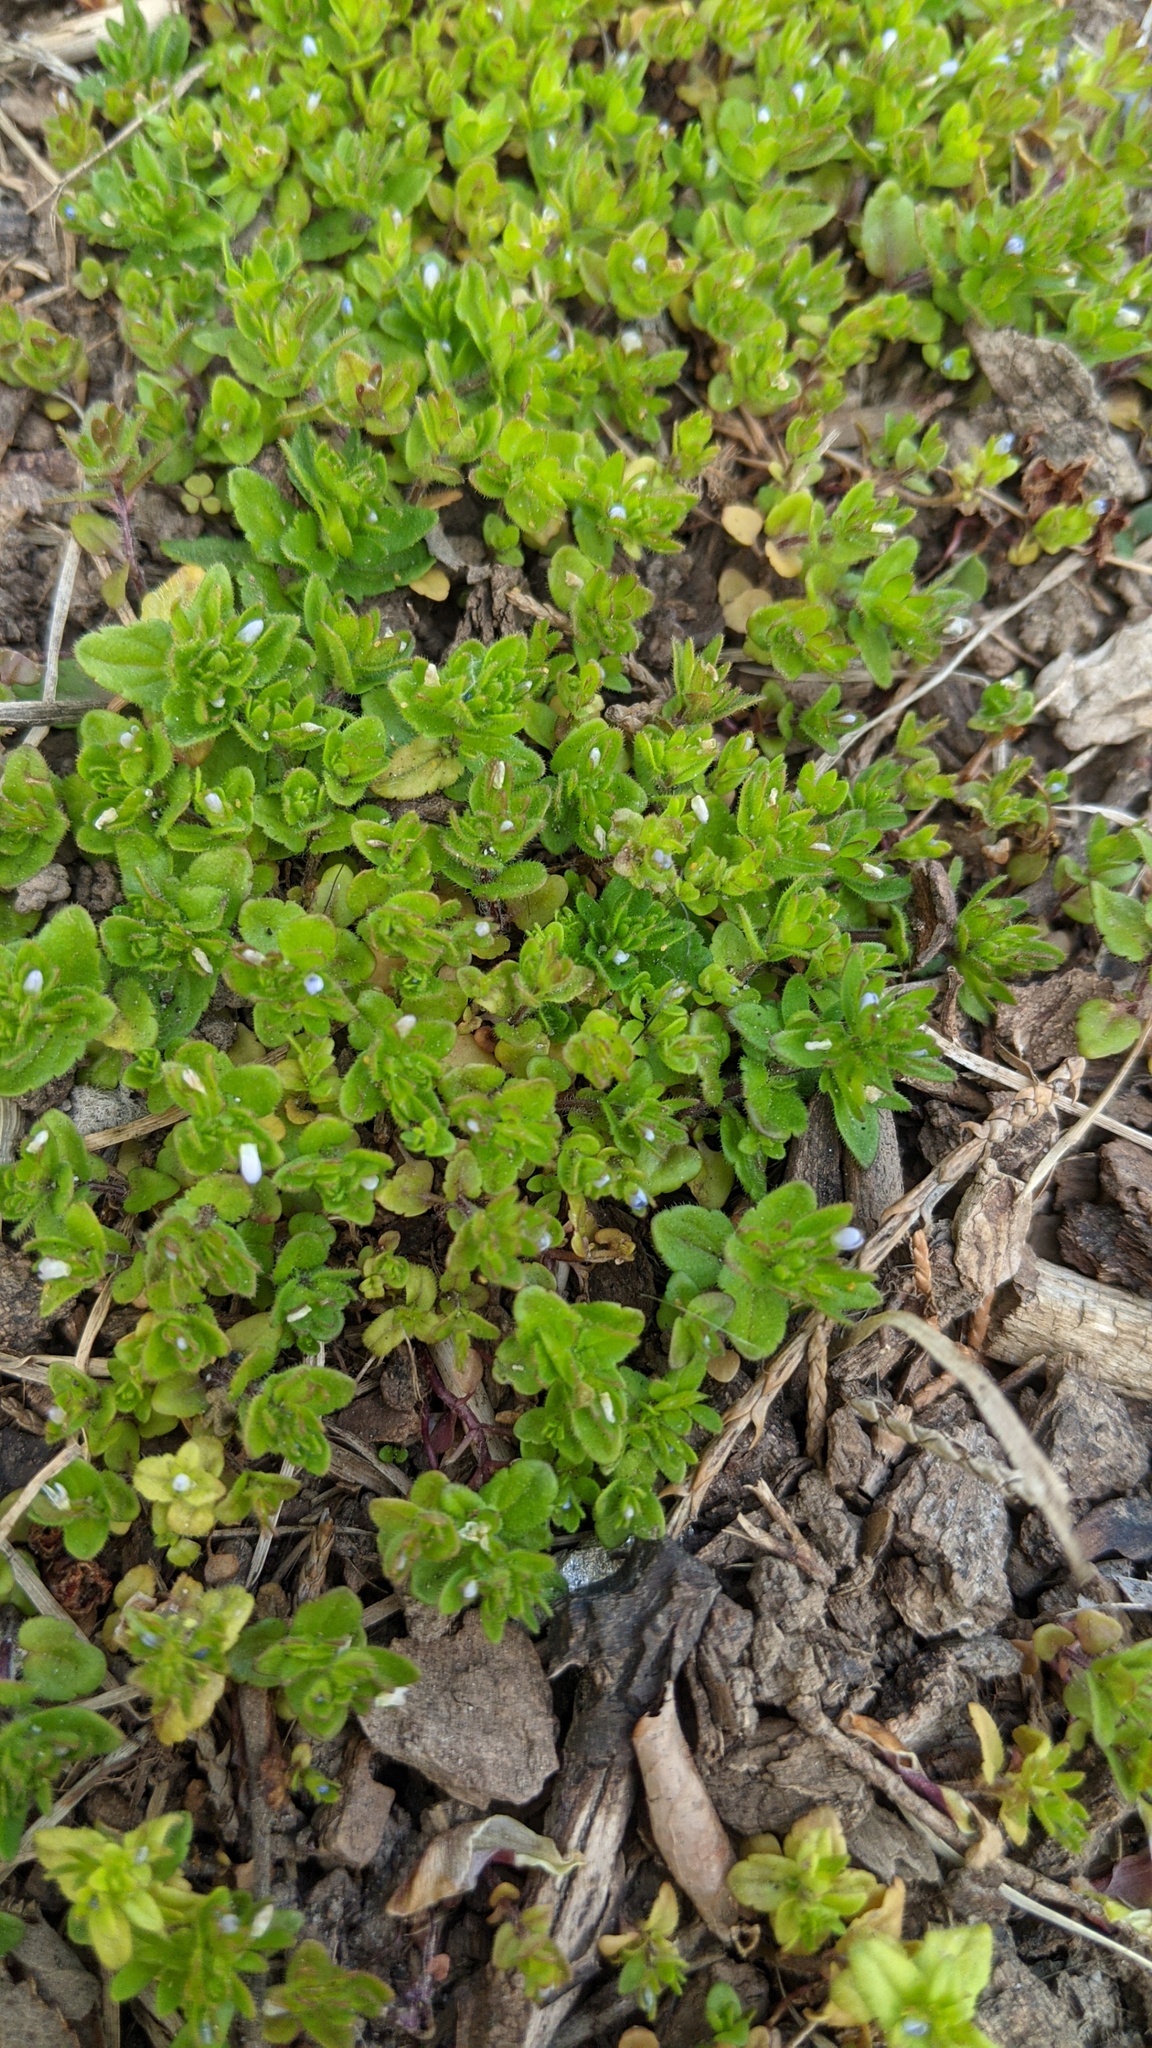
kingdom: Plantae
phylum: Tracheophyta
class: Magnoliopsida
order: Lamiales
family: Plantaginaceae
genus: Veronica
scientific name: Veronica arvensis
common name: Corn speedwell
